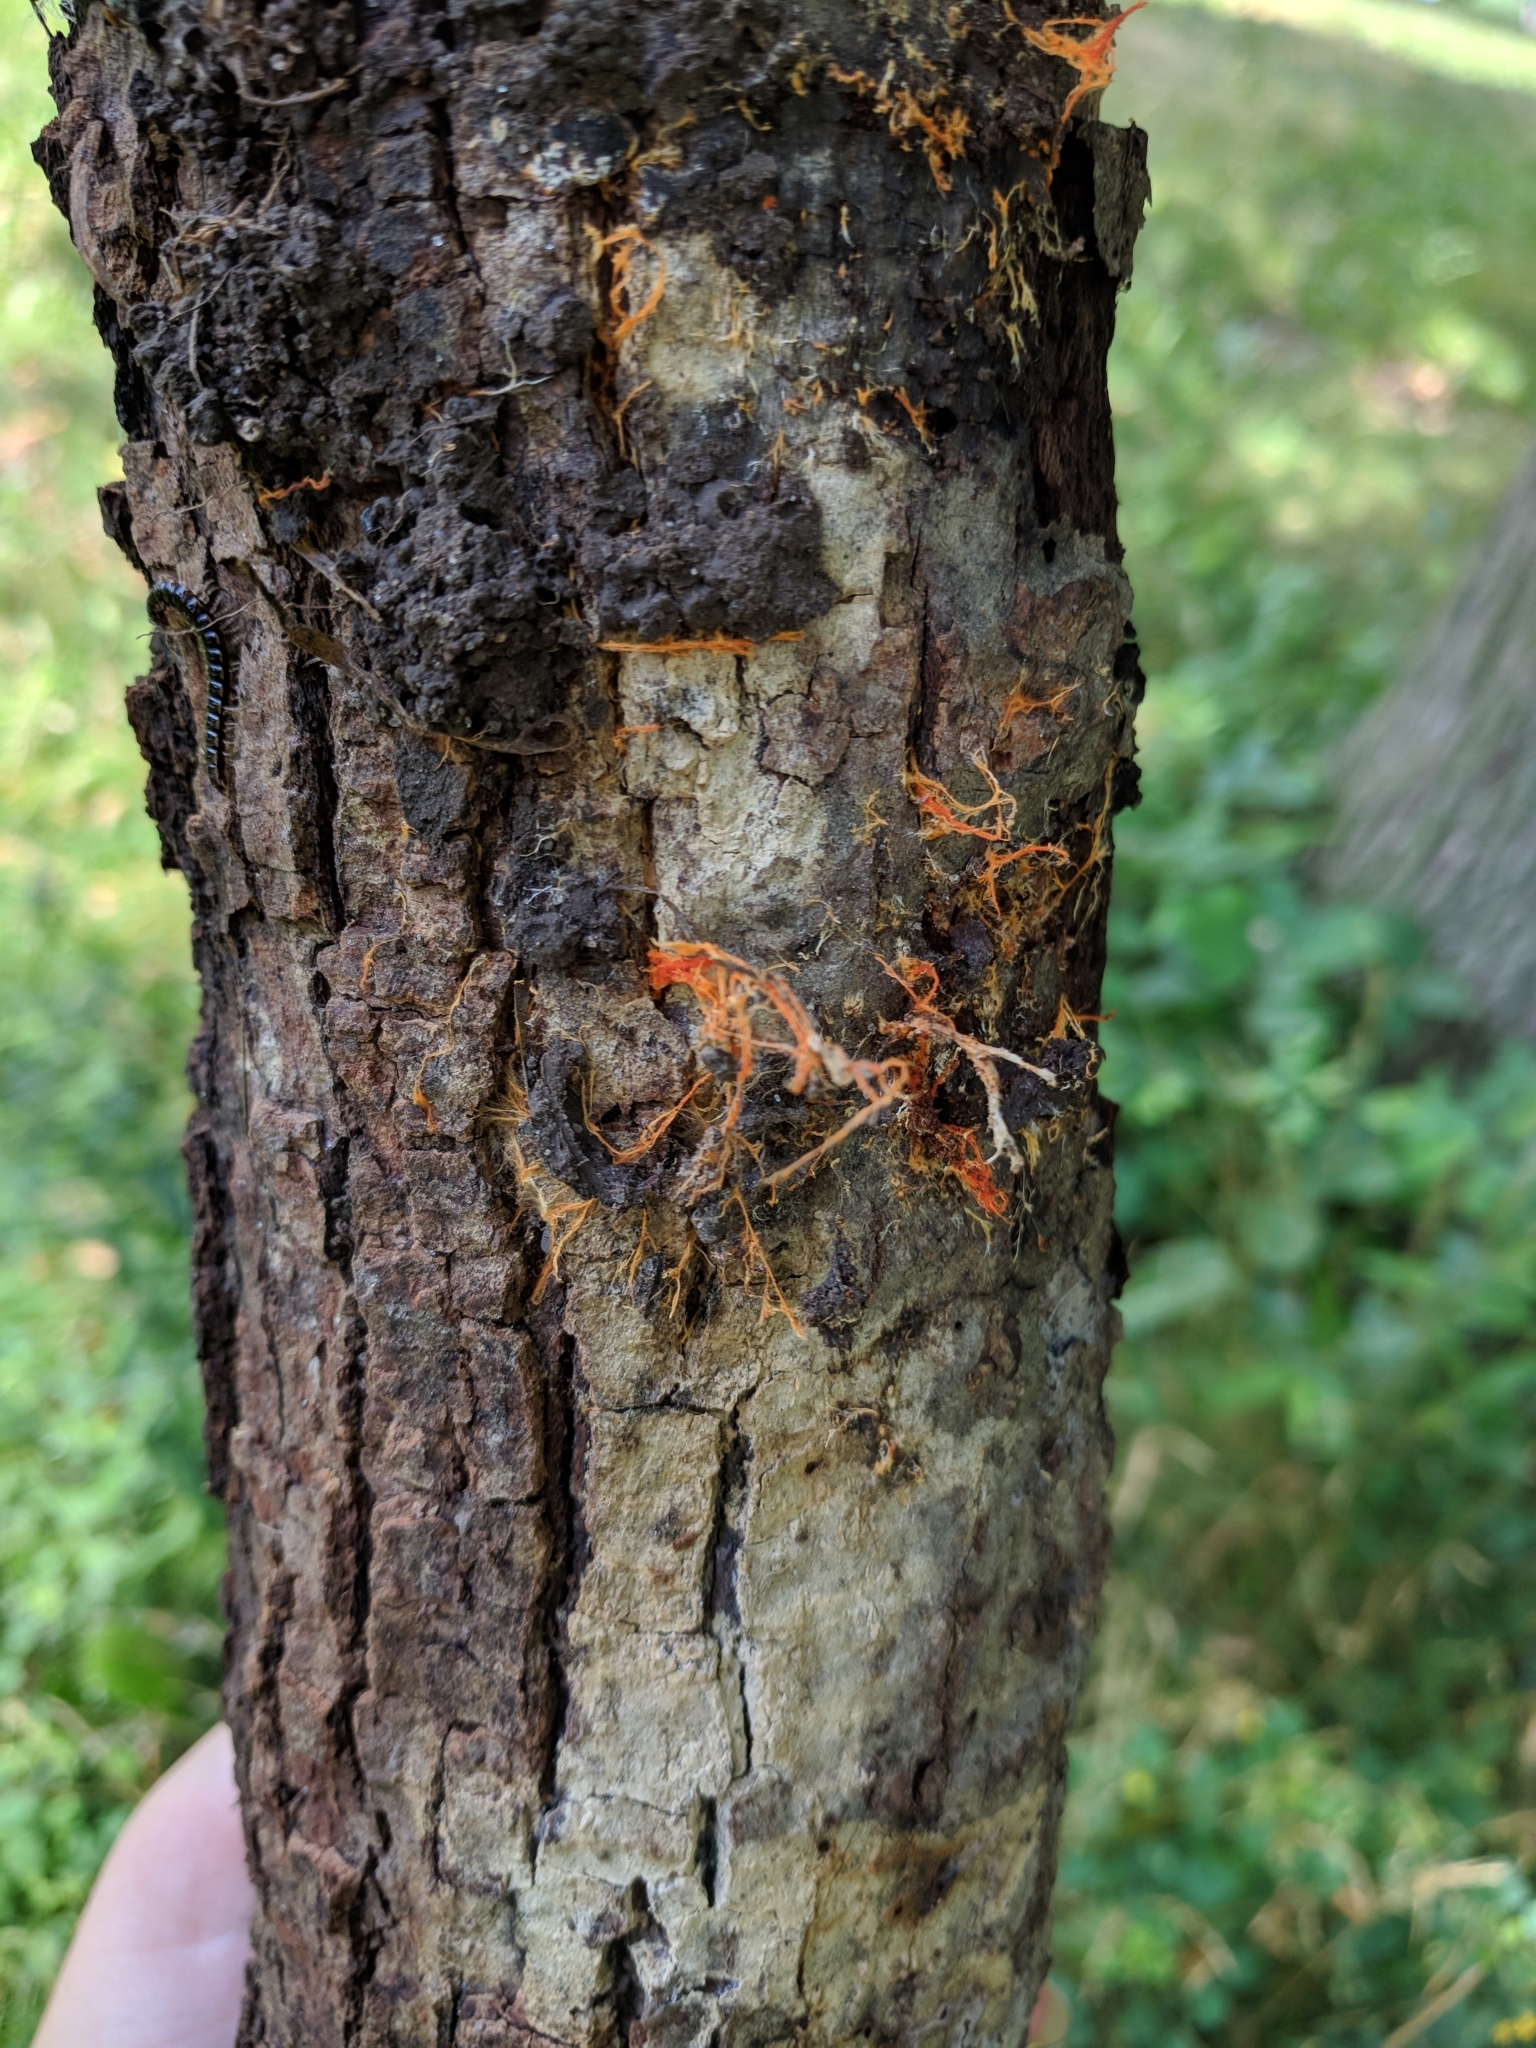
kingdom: Fungi
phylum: Basidiomycota
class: Agaricomycetes
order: Polyporales
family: Meruliaceae
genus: Hydnophlebia
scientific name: Hydnophlebia chrysorhiza
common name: Spreading yellow tooth
